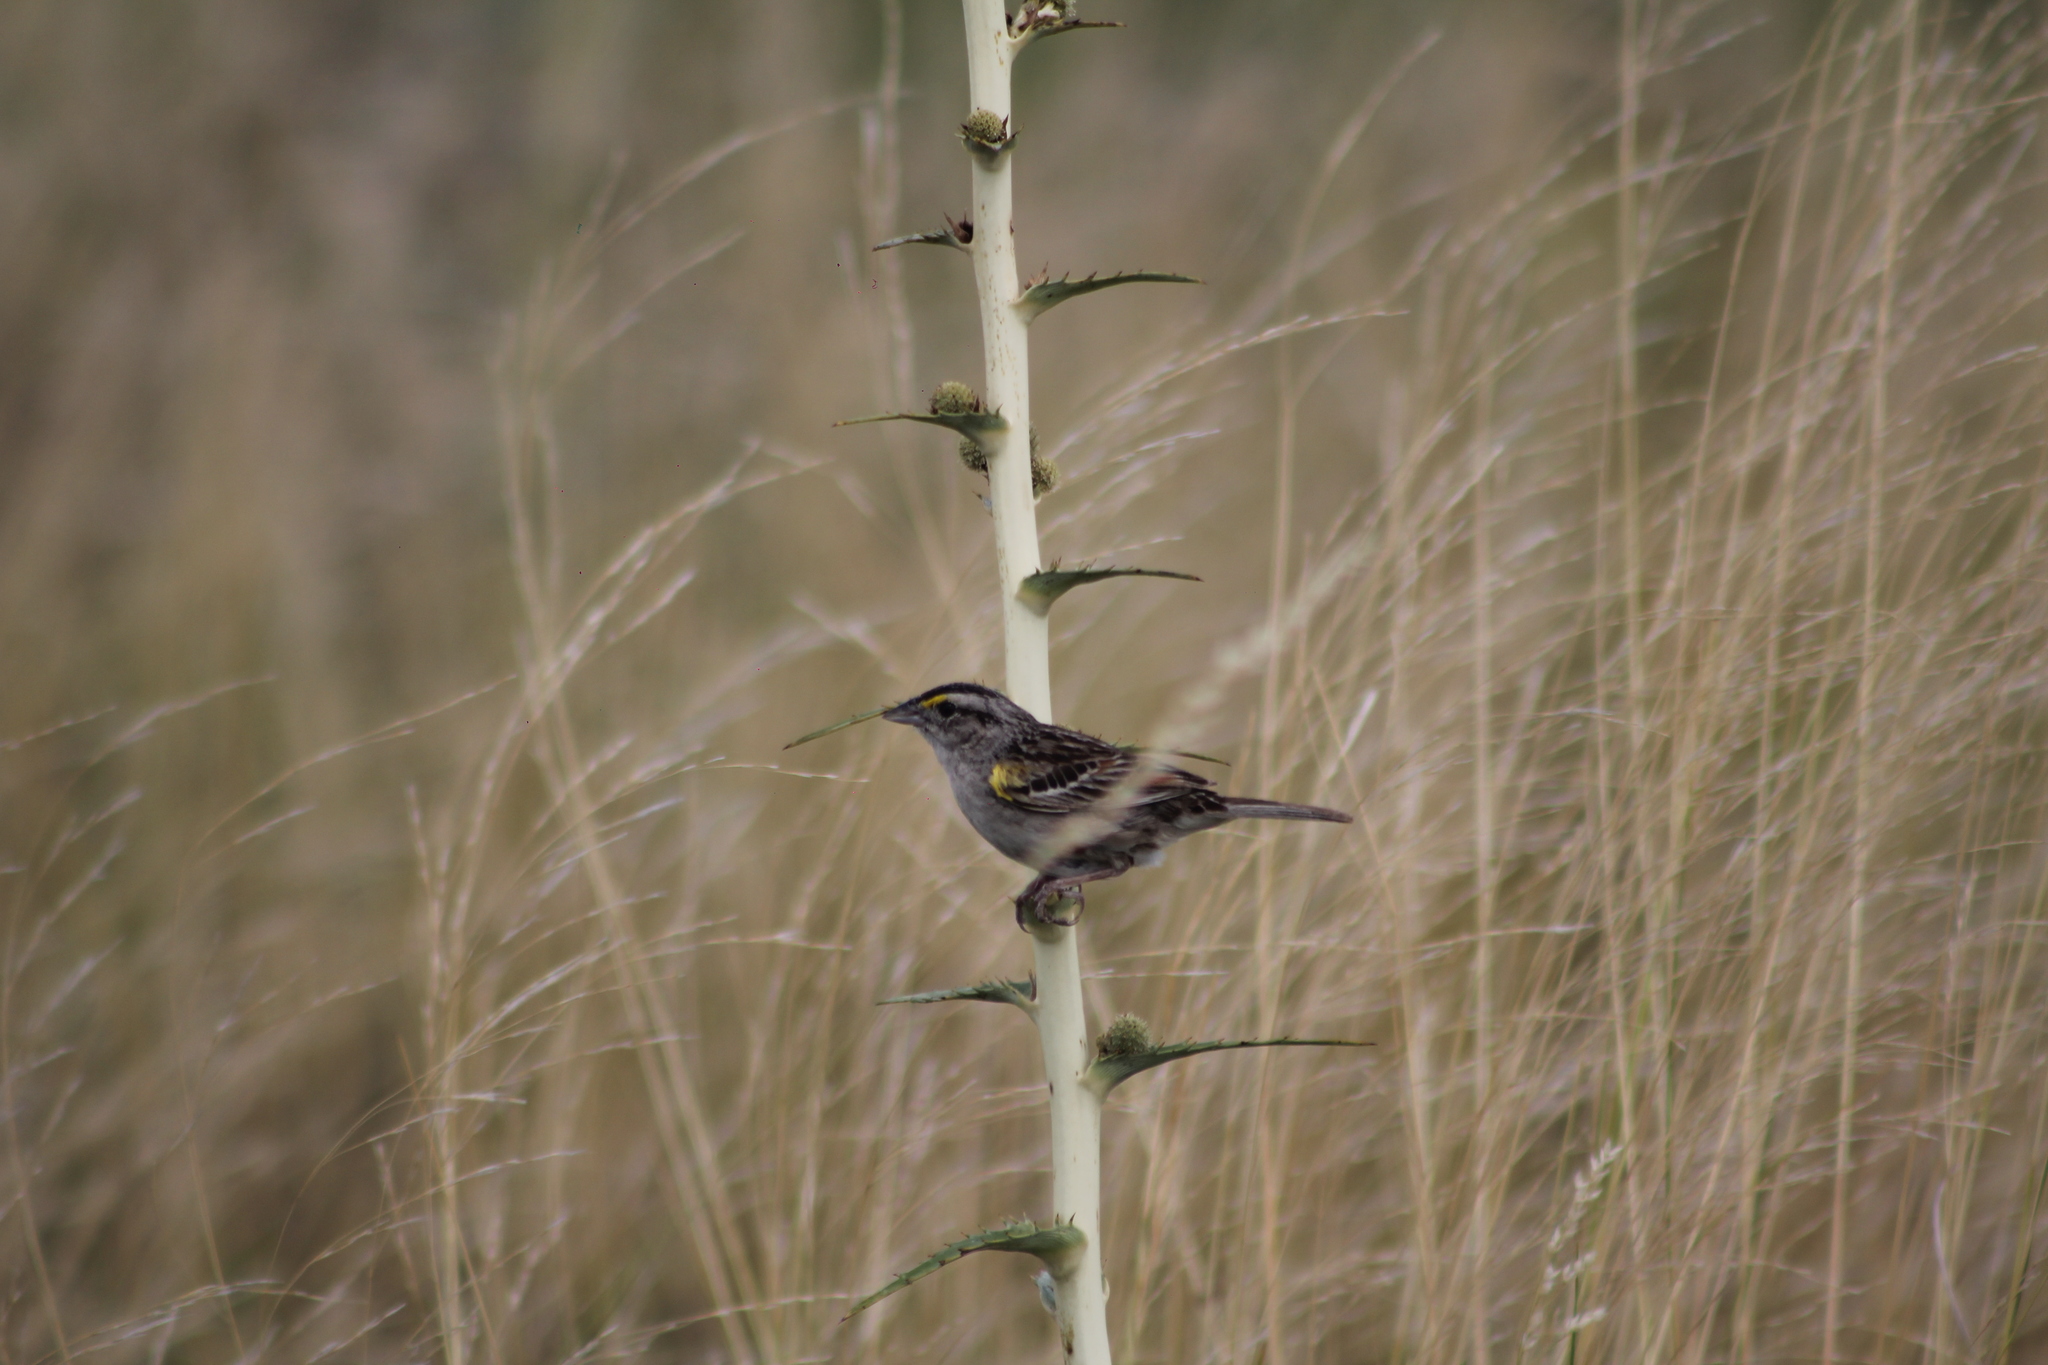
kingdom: Animalia
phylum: Chordata
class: Aves
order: Passeriformes
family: Passerellidae
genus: Ammodramus
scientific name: Ammodramus humeralis
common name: Grassland sparrow
